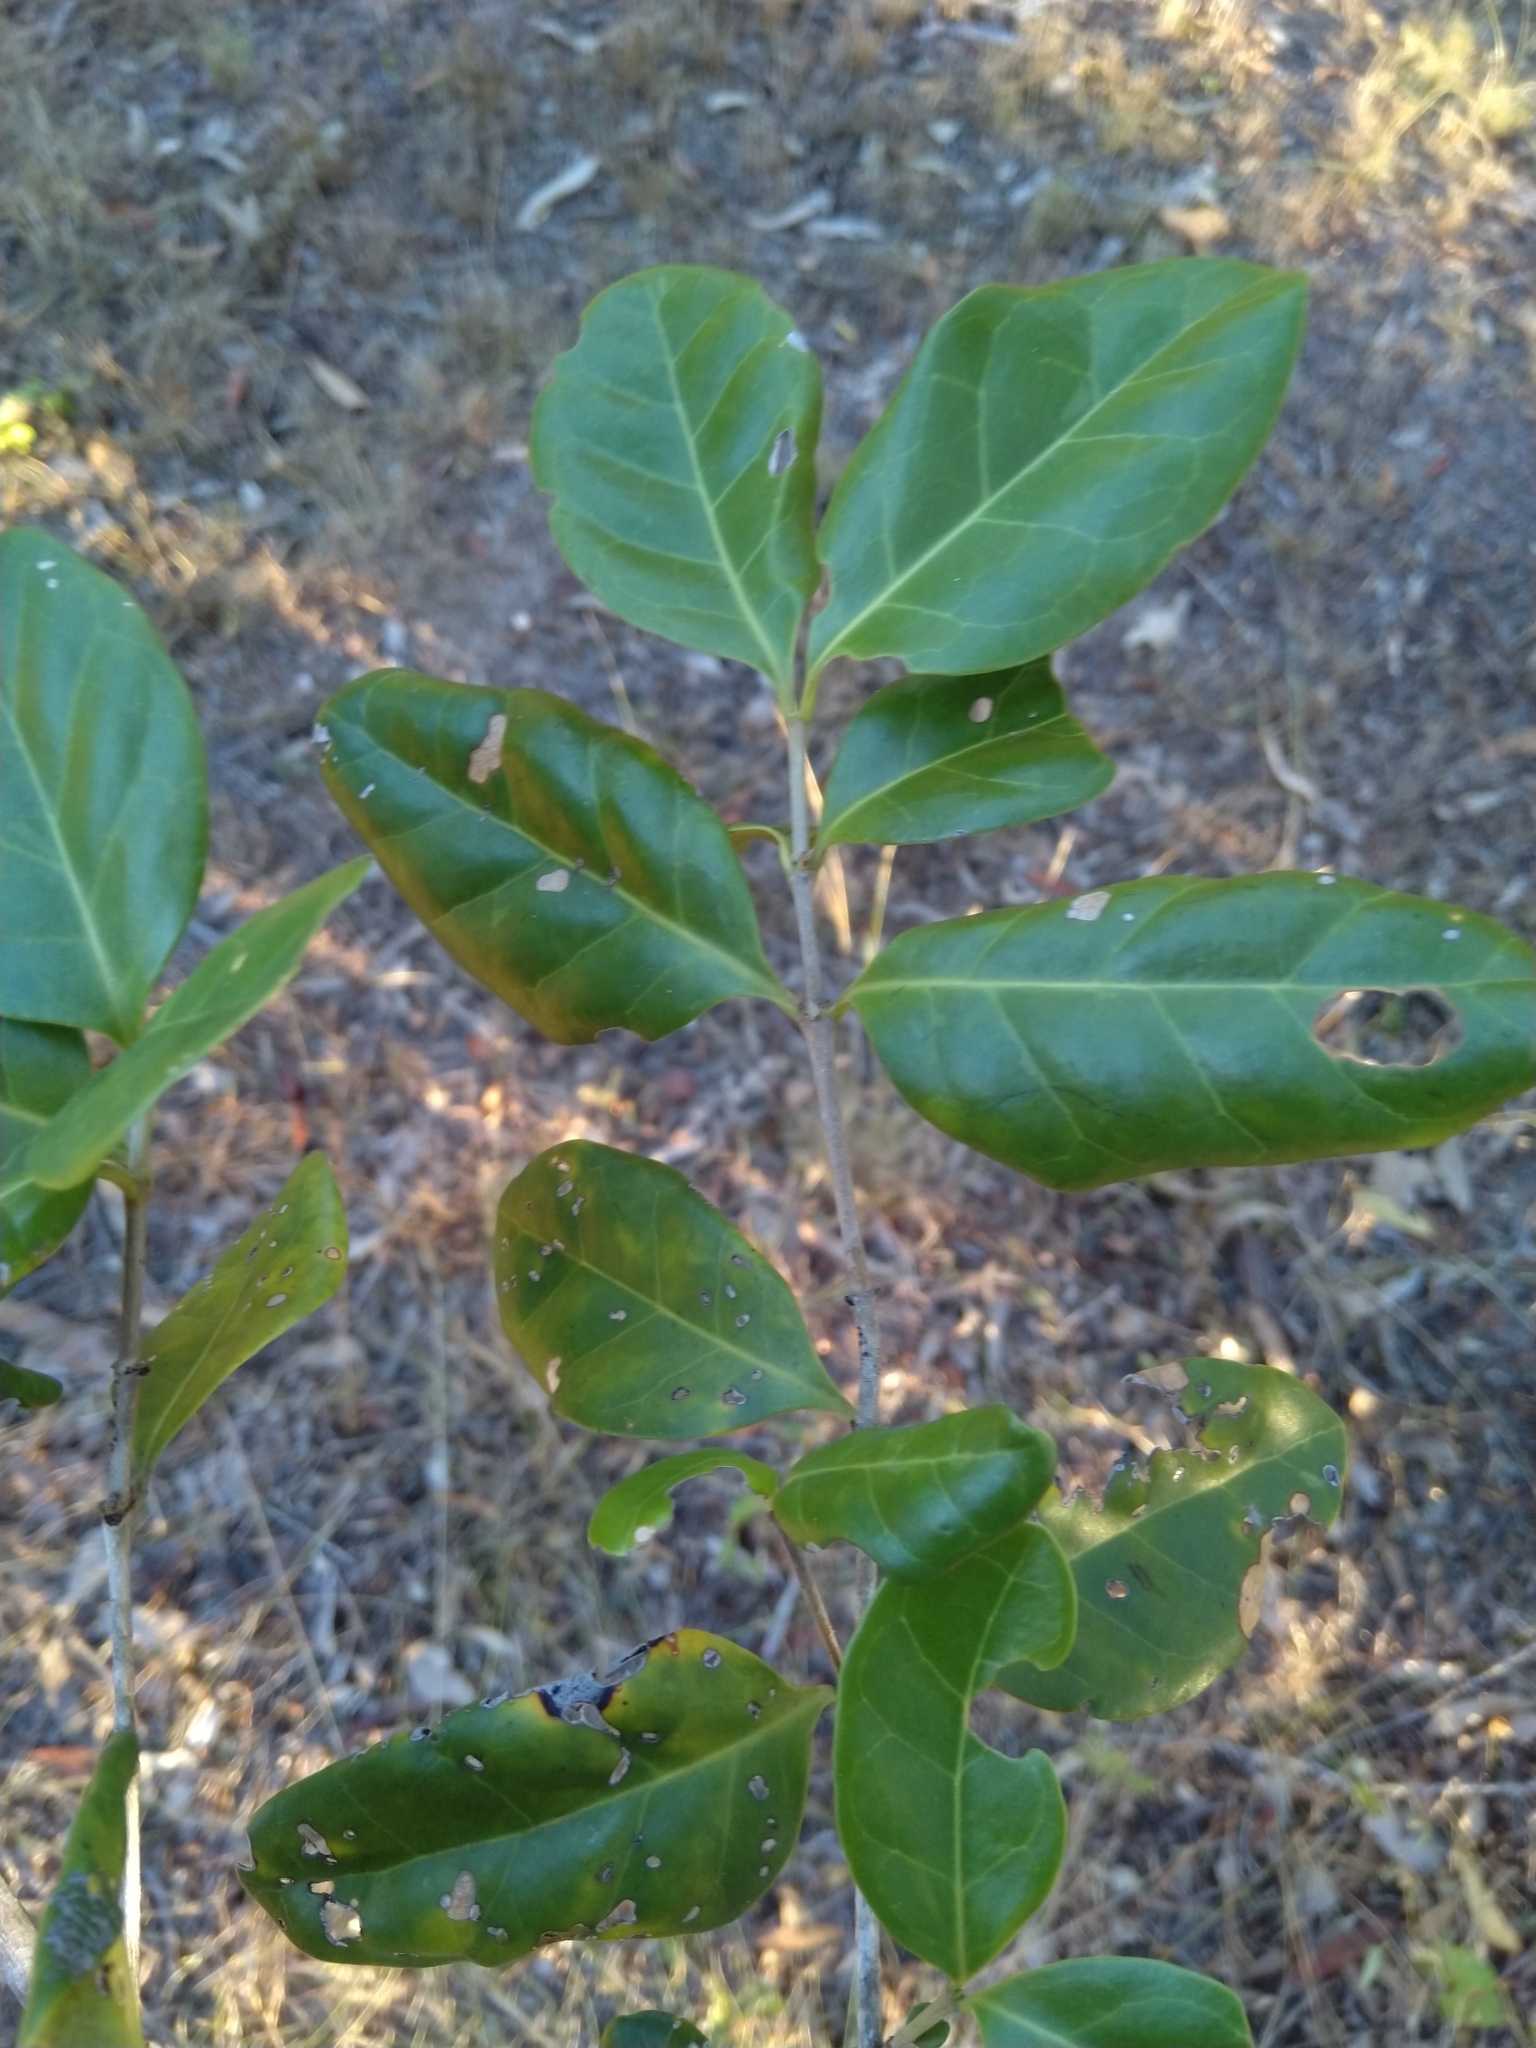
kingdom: Plantae
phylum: Tracheophyta
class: Magnoliopsida
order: Gentianales
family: Rubiaceae
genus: Cyclophyllum
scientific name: Cyclophyllum coprosmoides
